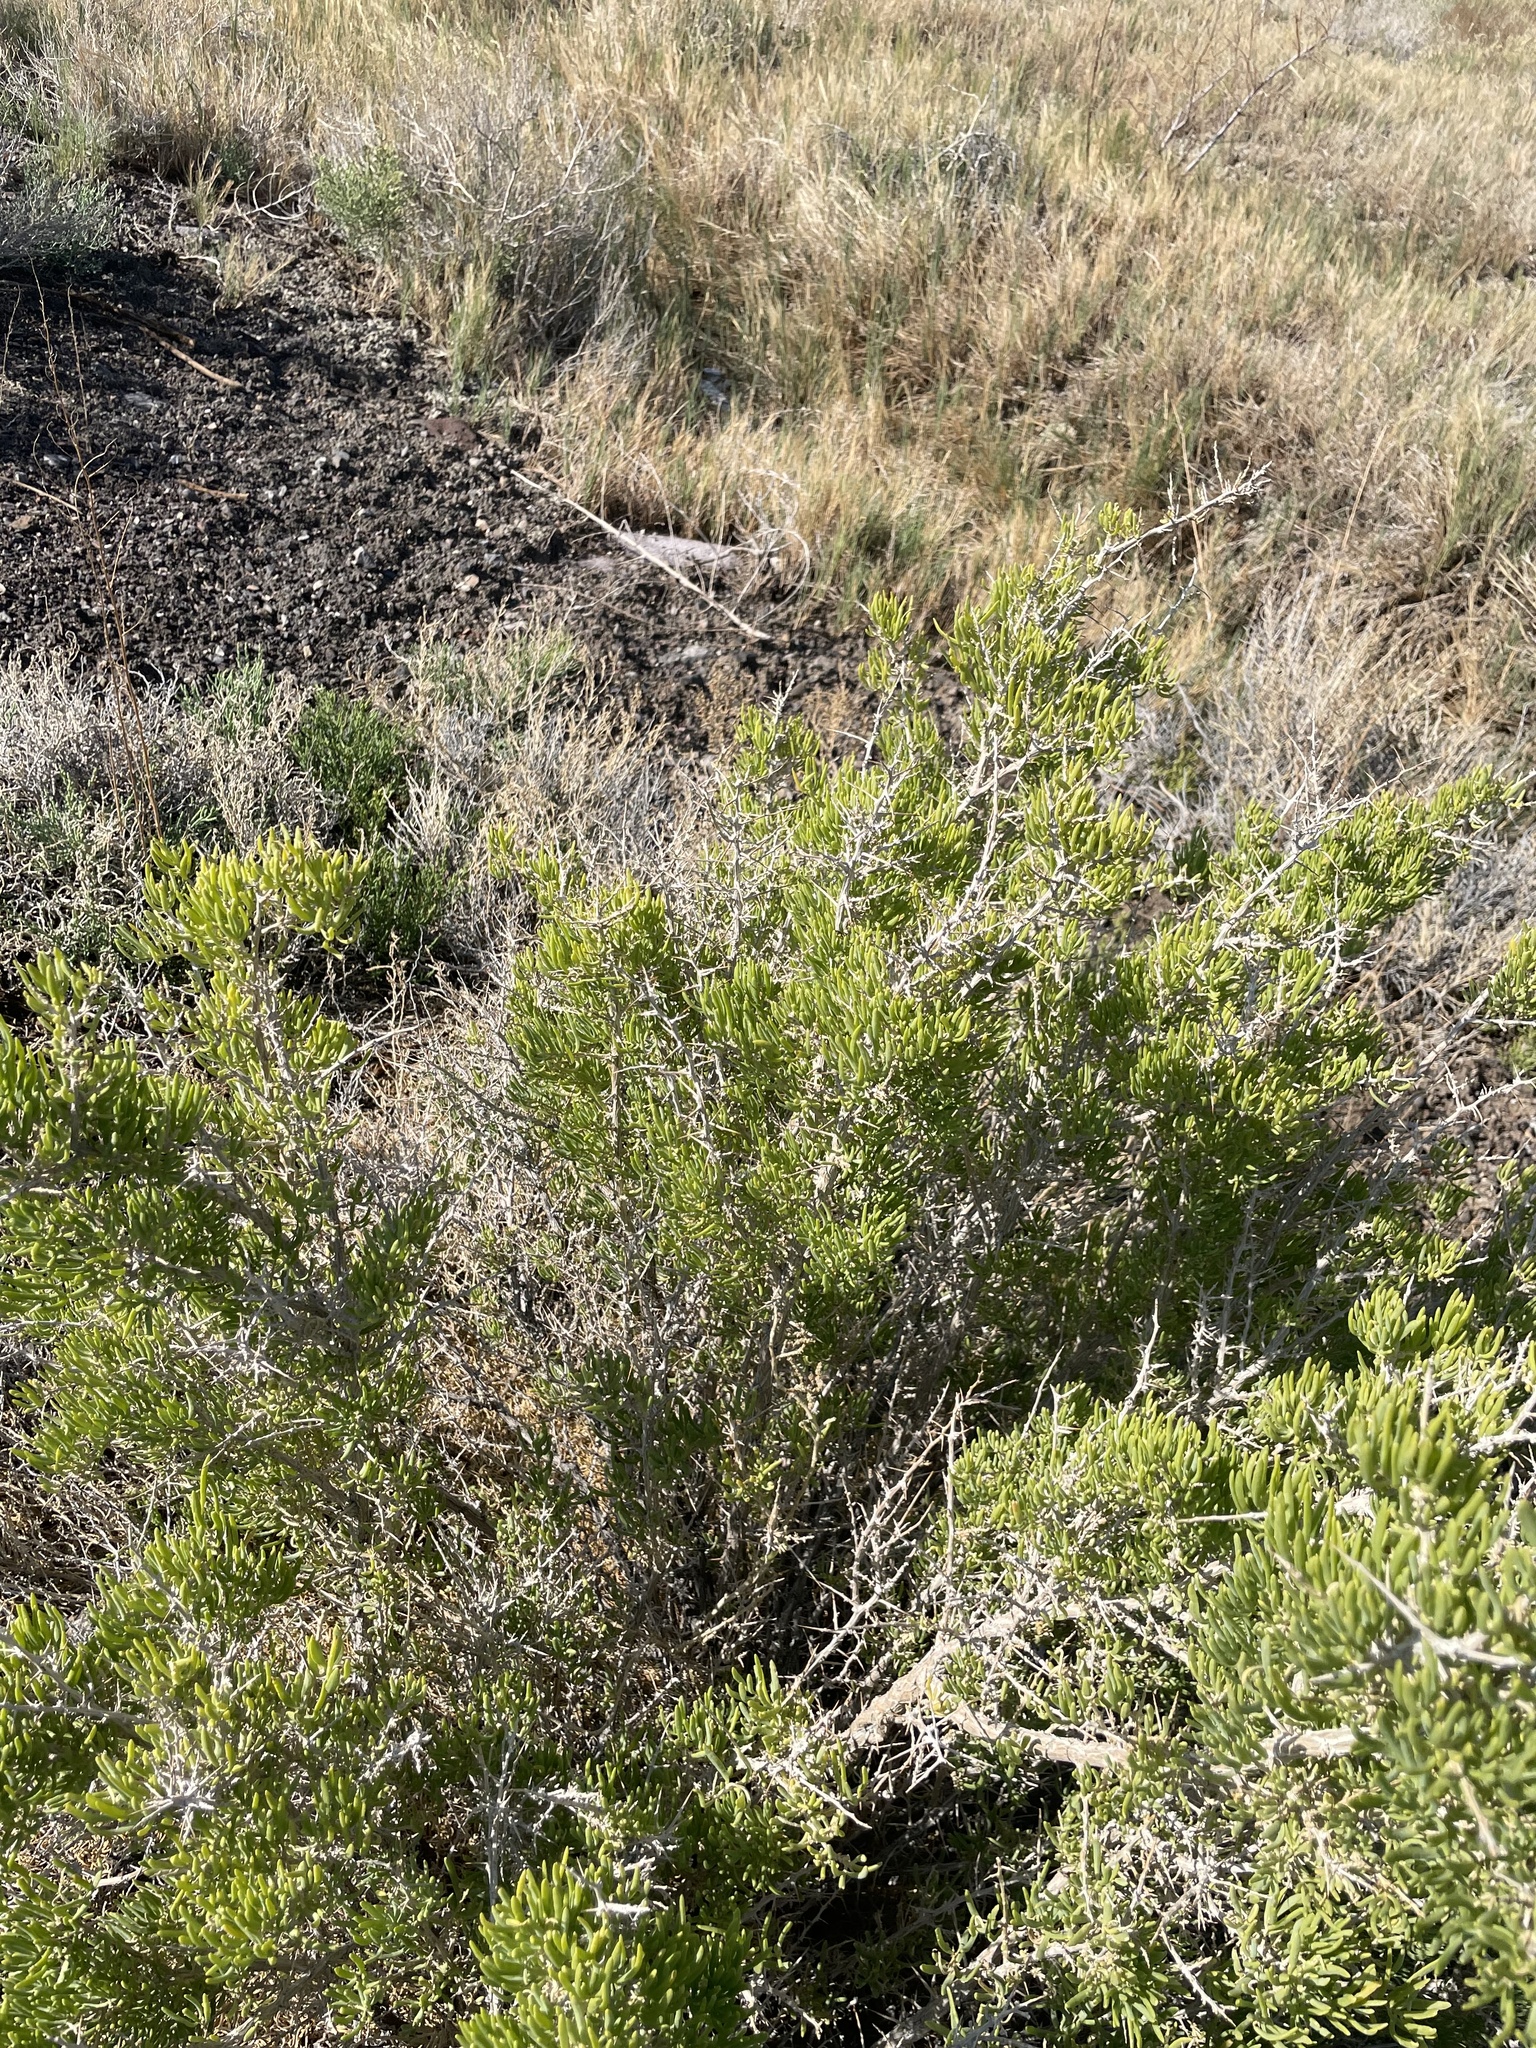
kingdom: Plantae
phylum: Tracheophyta
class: Magnoliopsida
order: Caryophyllales
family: Sarcobataceae
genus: Sarcobatus
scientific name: Sarcobatus vermiculatus
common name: Greasewood
